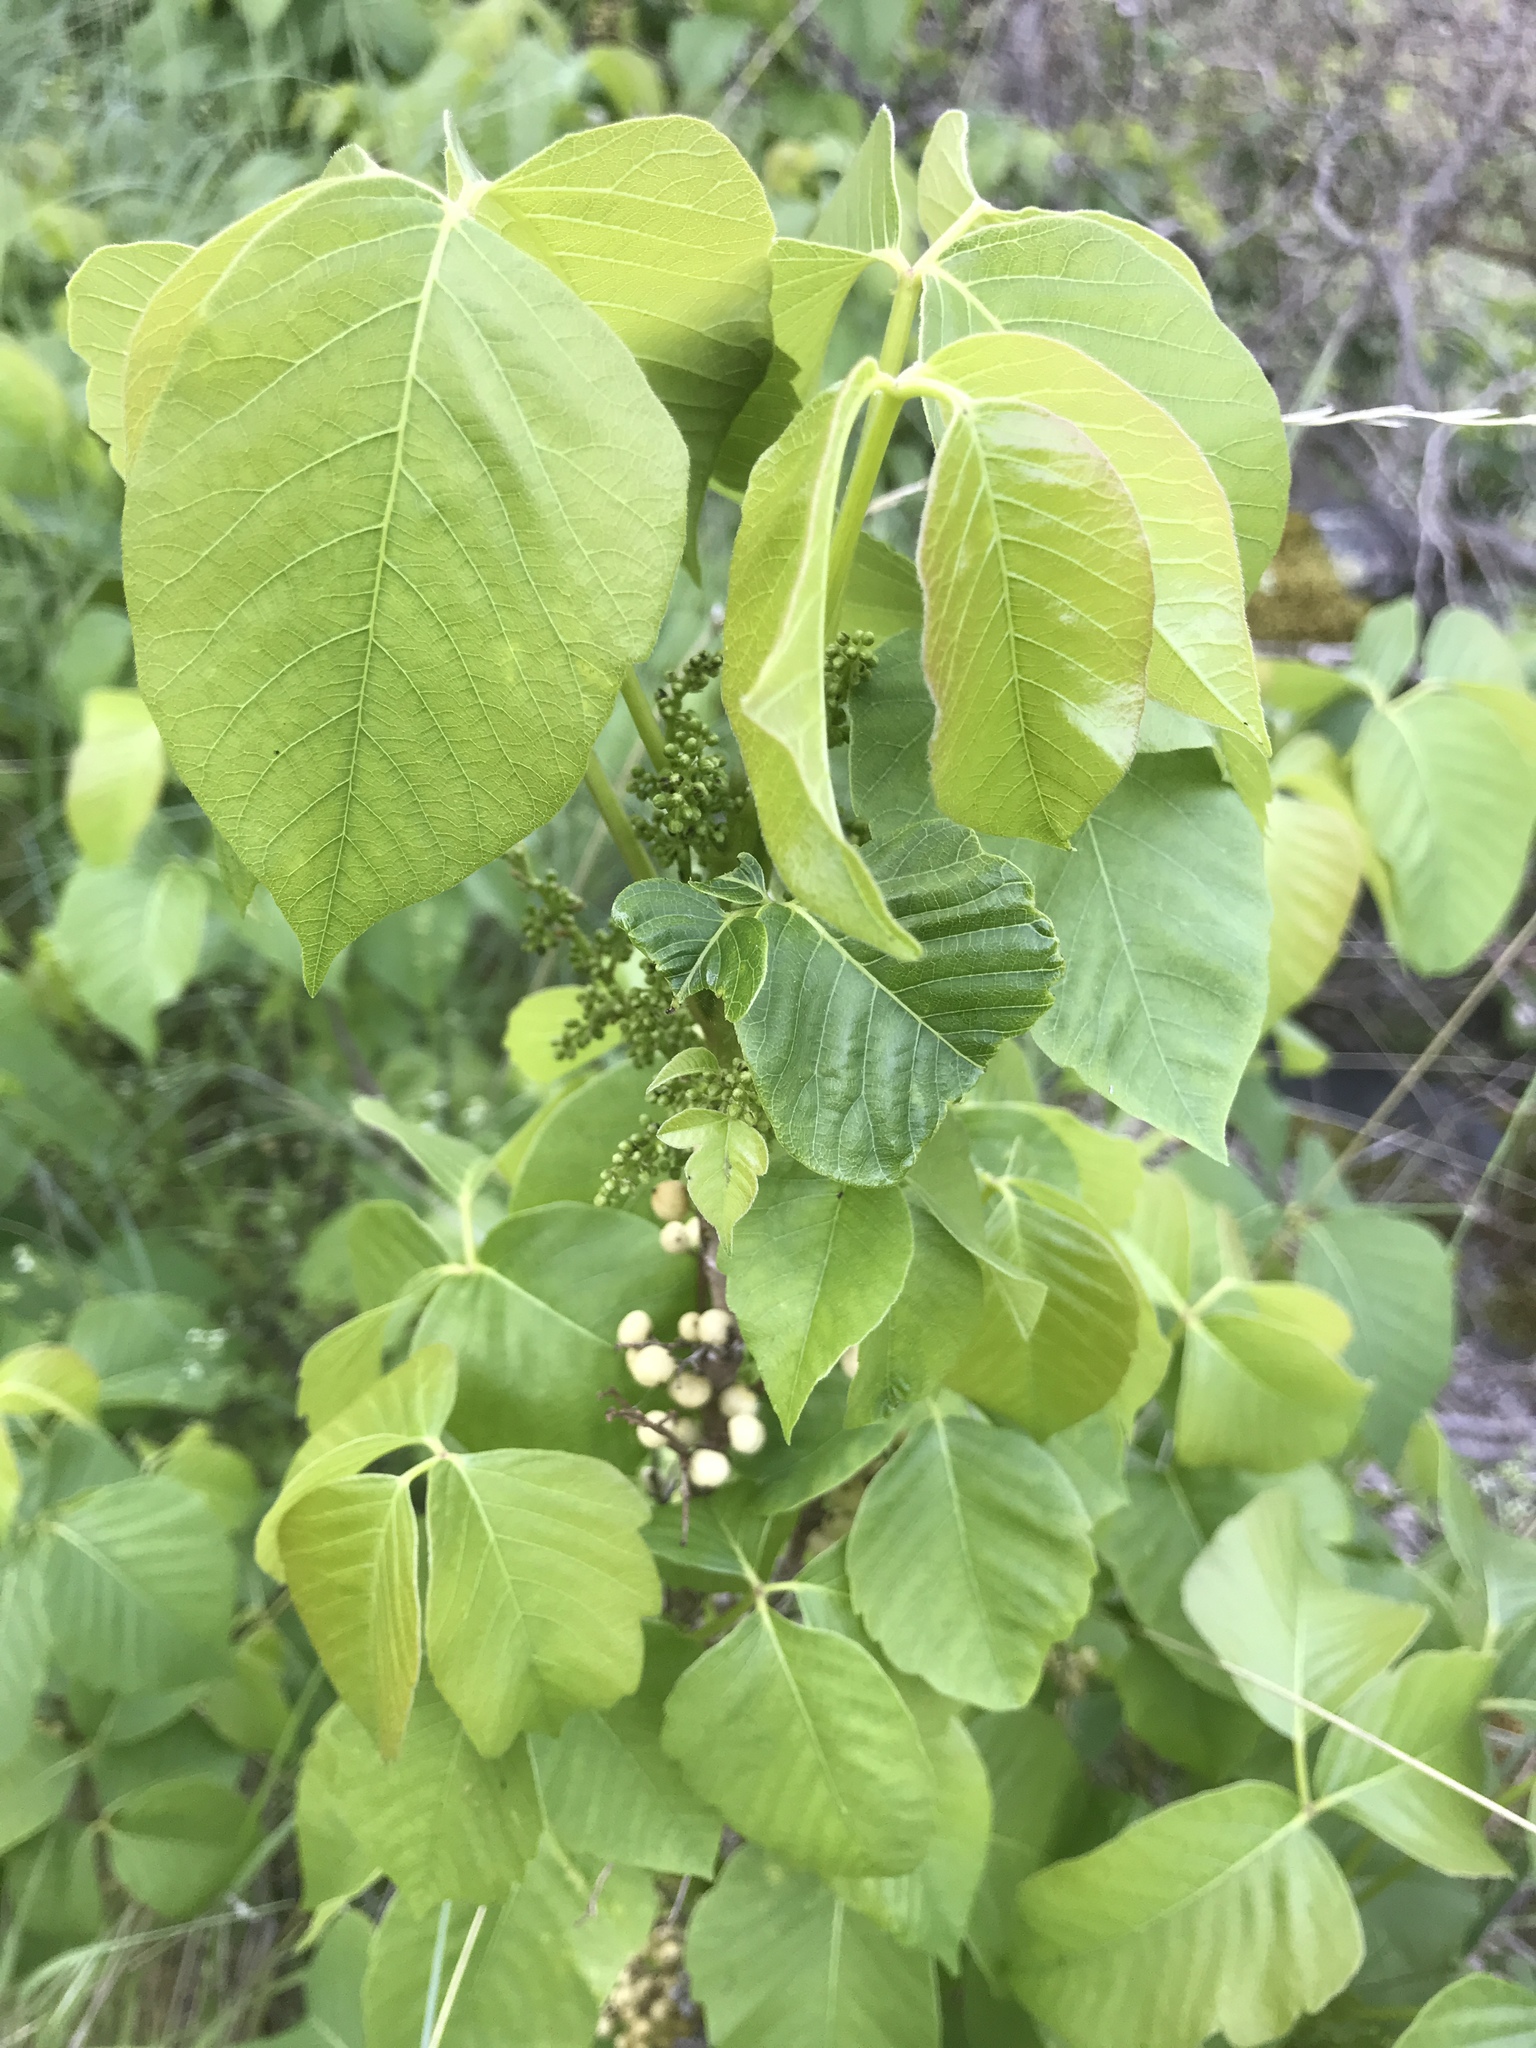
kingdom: Plantae
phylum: Tracheophyta
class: Magnoliopsida
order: Sapindales
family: Anacardiaceae
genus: Toxicodendron
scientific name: Toxicodendron rydbergii
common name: Rydberg's poison-ivy
